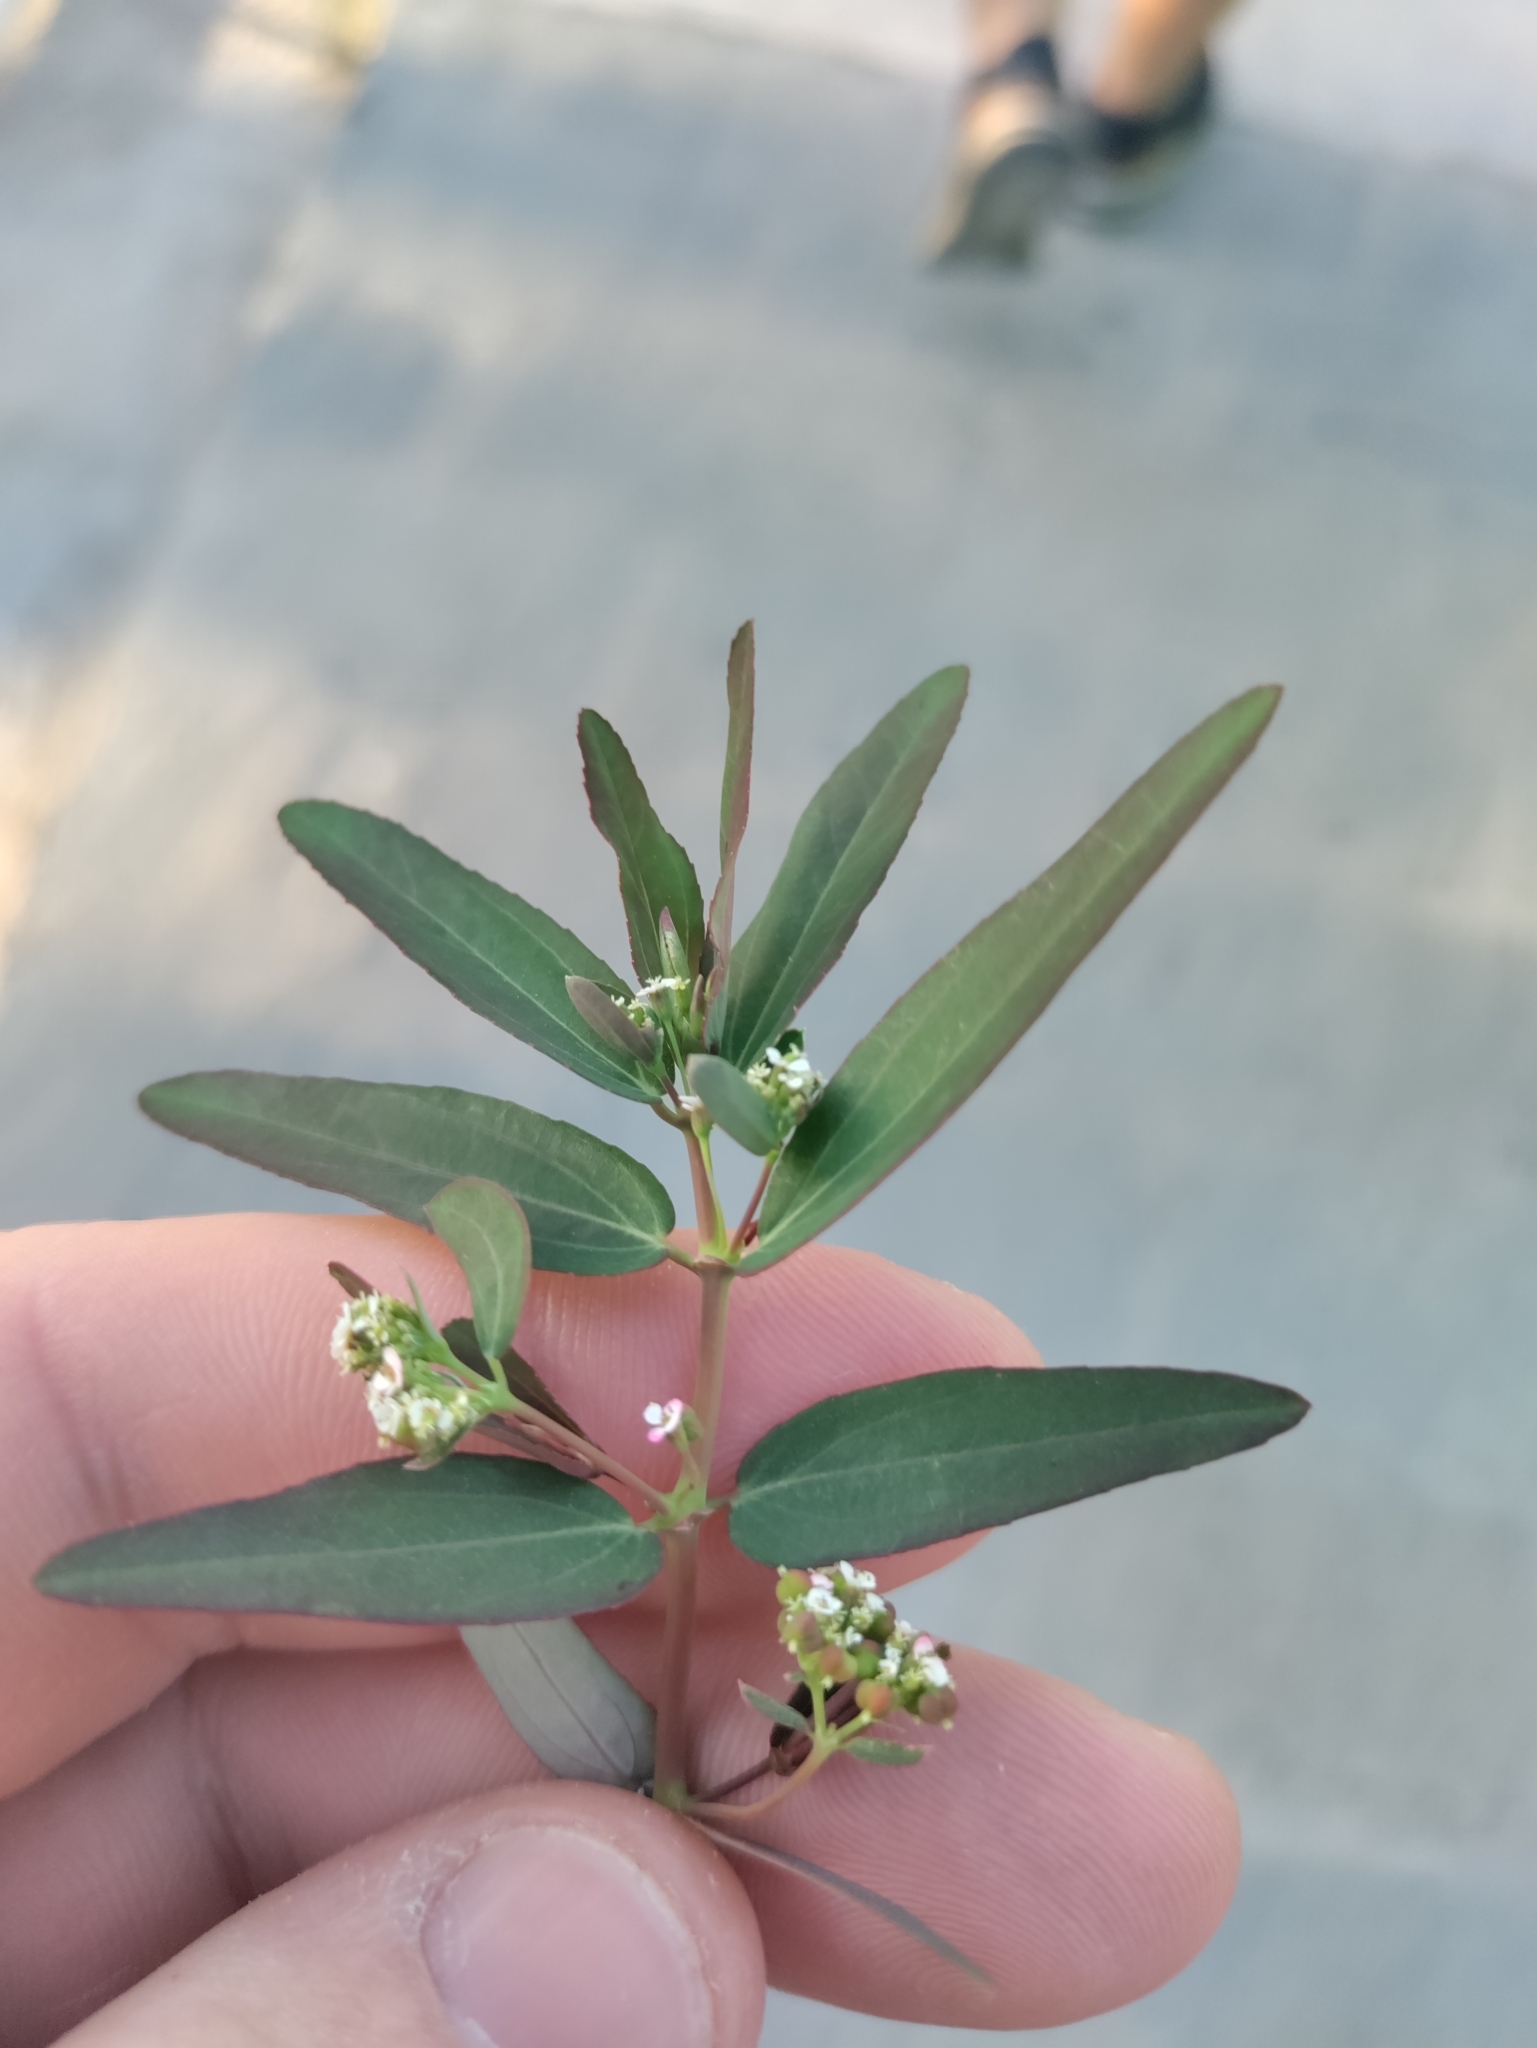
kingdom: Plantae
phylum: Tracheophyta
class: Magnoliopsida
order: Malpighiales
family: Euphorbiaceae
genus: Euphorbia
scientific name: Euphorbia hypericifolia
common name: Graceful sandmat
